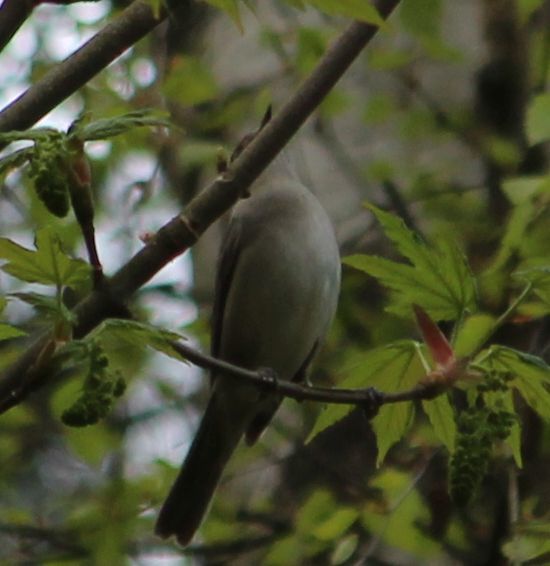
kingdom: Animalia
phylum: Chordata
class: Aves
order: Passeriformes
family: Sylviidae
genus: Sylvia
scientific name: Sylvia atricapilla
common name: Eurasian blackcap
